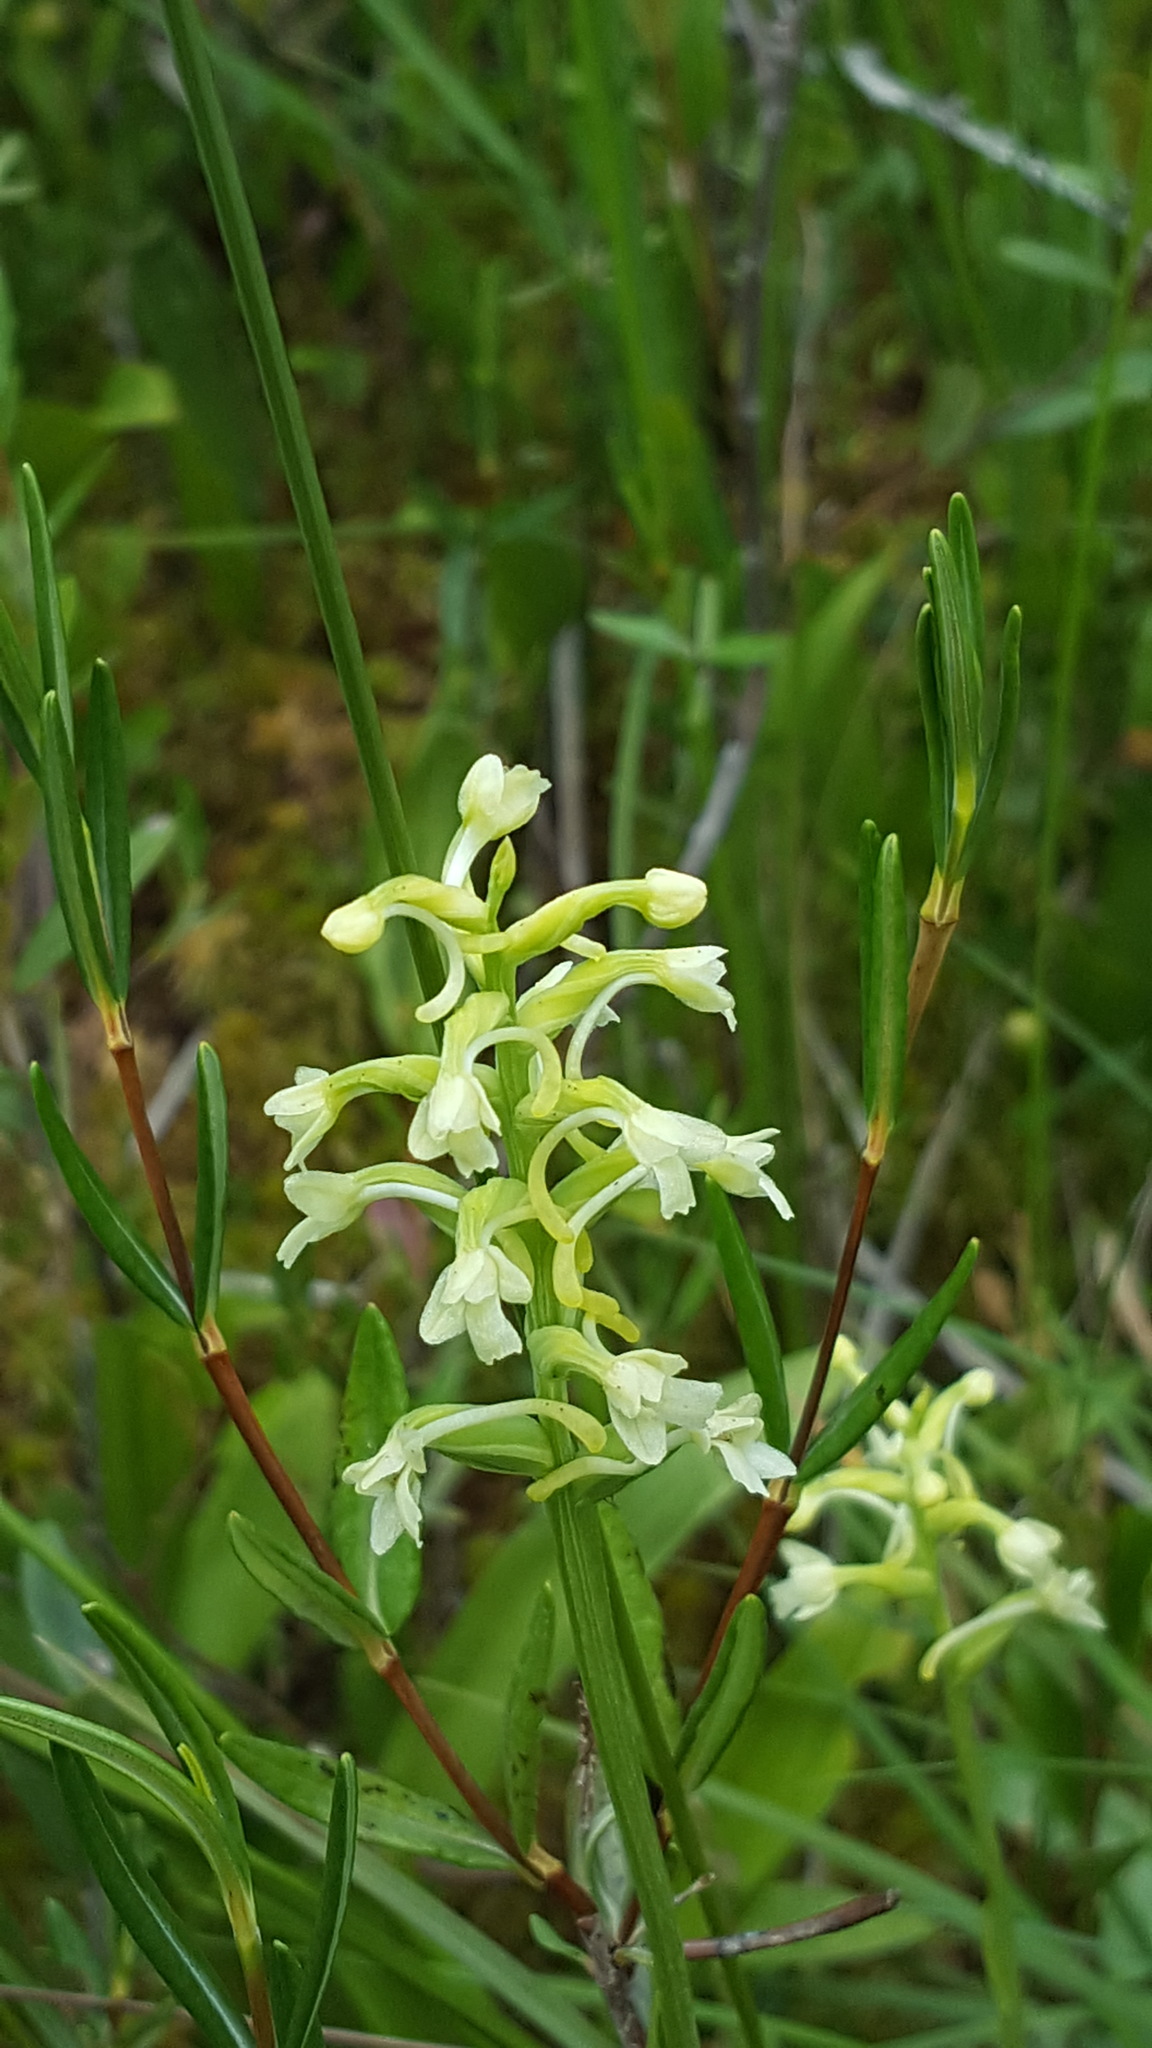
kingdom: Plantae
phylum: Tracheophyta
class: Liliopsida
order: Asparagales
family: Orchidaceae
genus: Platanthera
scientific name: Platanthera clavellata
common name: Club-spur orchid
